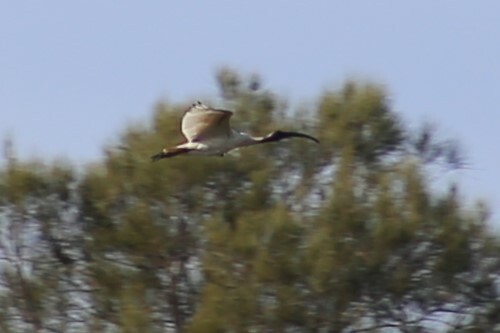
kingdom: Animalia
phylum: Chordata
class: Aves
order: Pelecaniformes
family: Threskiornithidae
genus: Threskiornis
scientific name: Threskiornis molucca
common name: Australian white ibis
